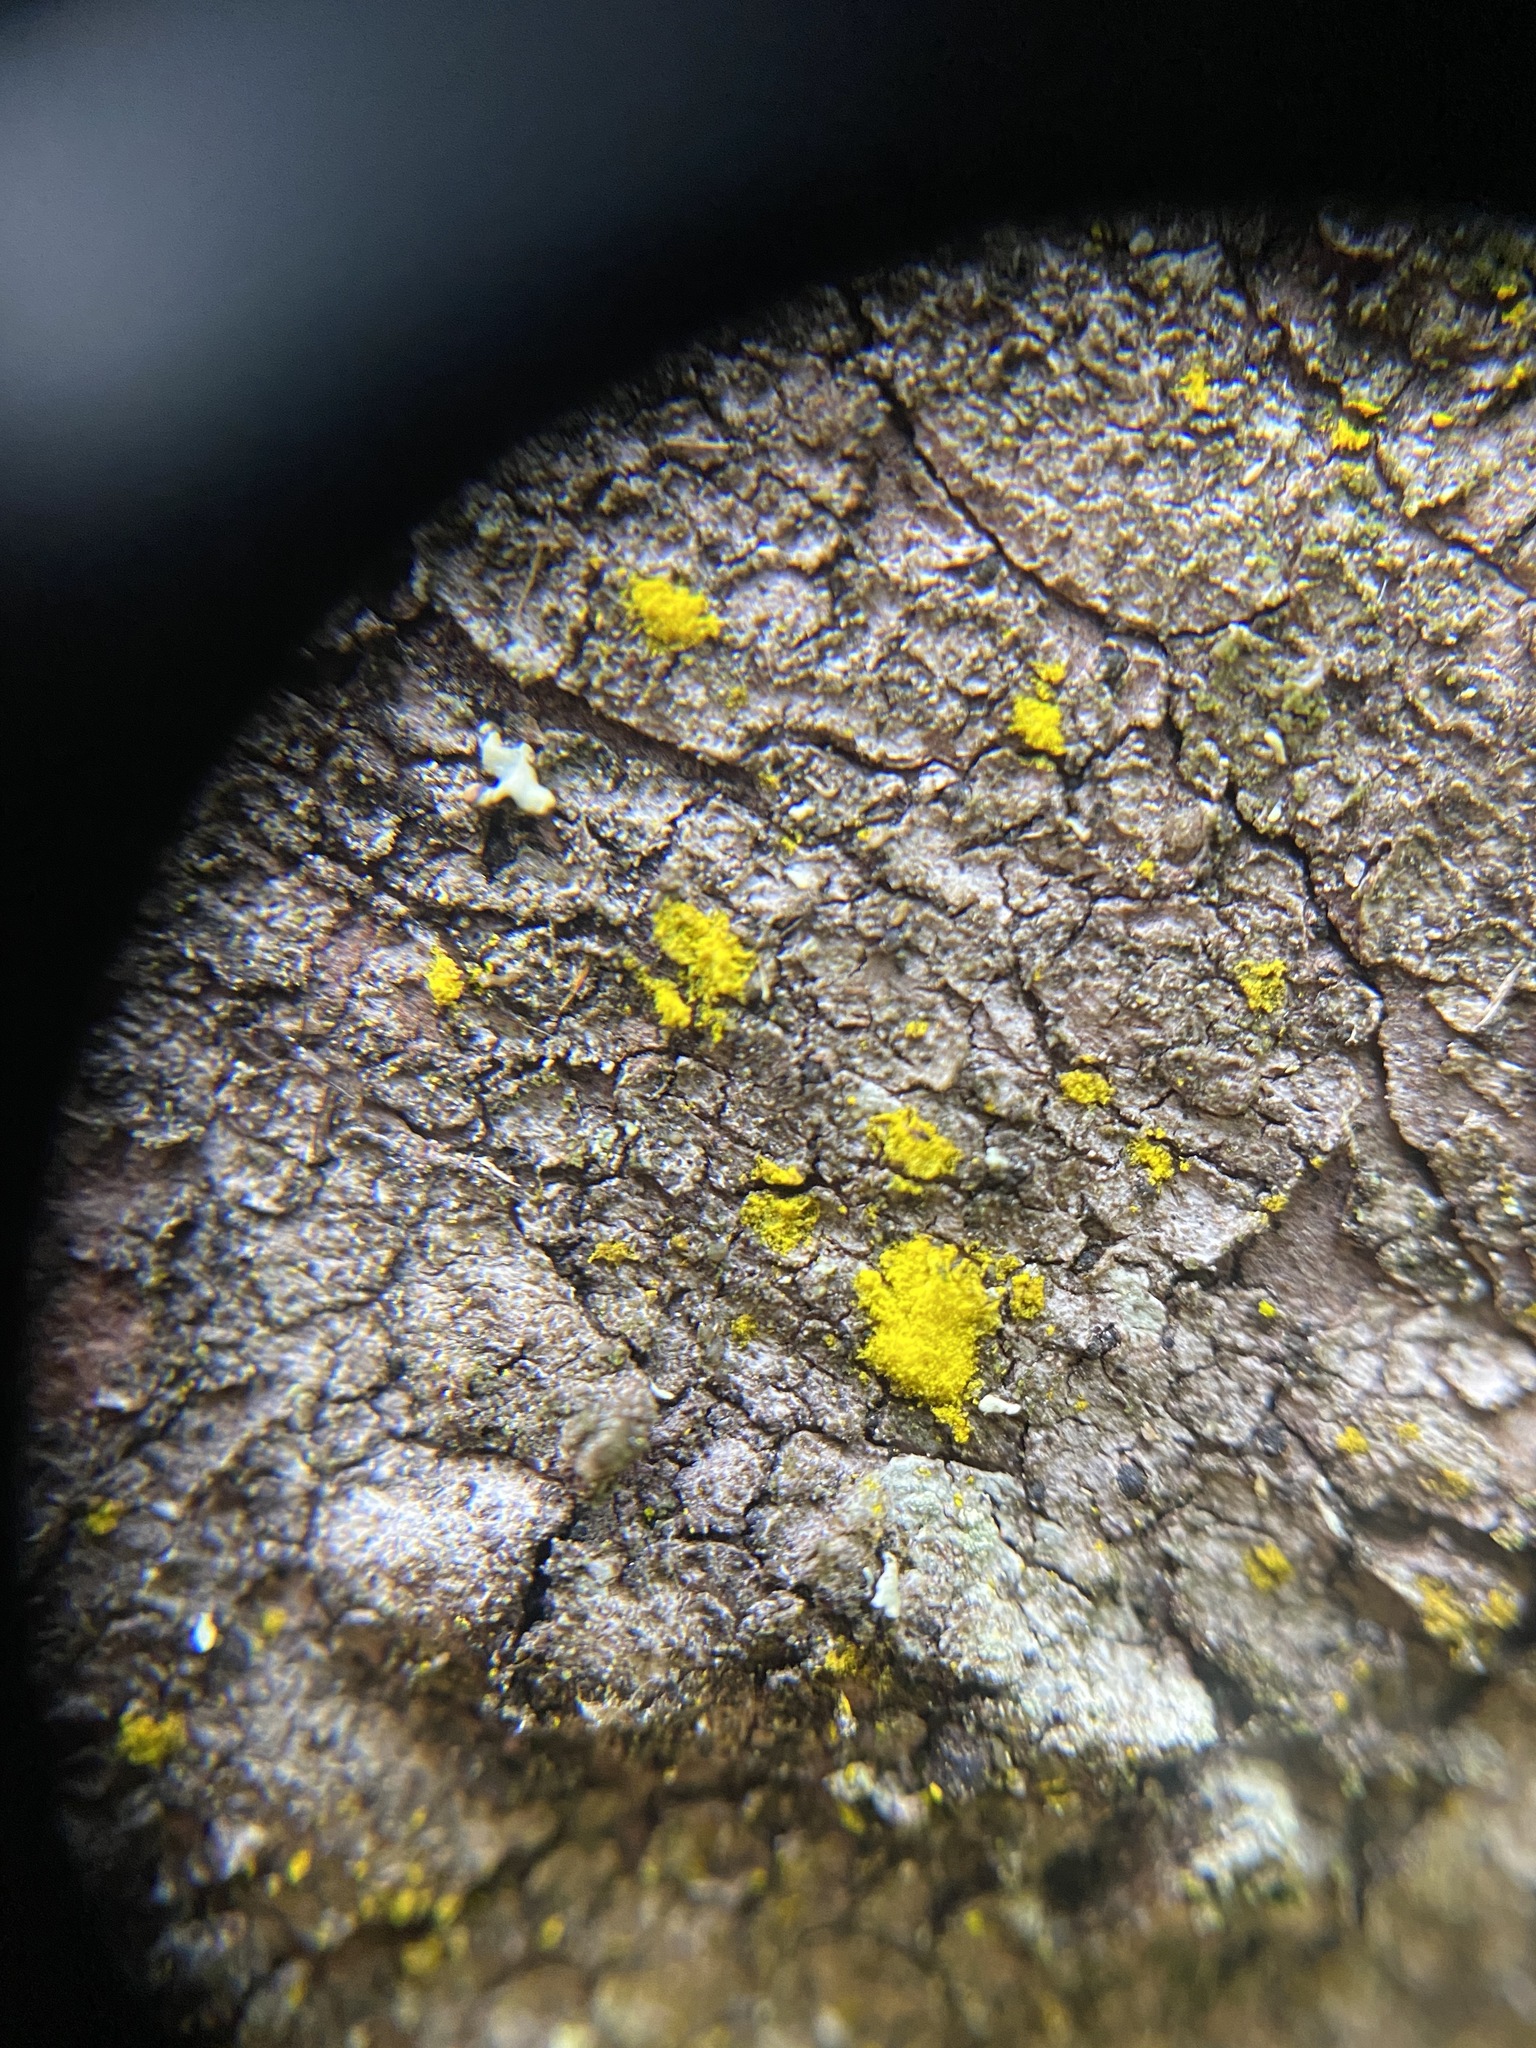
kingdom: Fungi
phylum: Ascomycota
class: Candelariomycetes
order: Candelariales
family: Candelariaceae
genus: Candelariella
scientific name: Candelariella vitellina
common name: Common goldspeck
